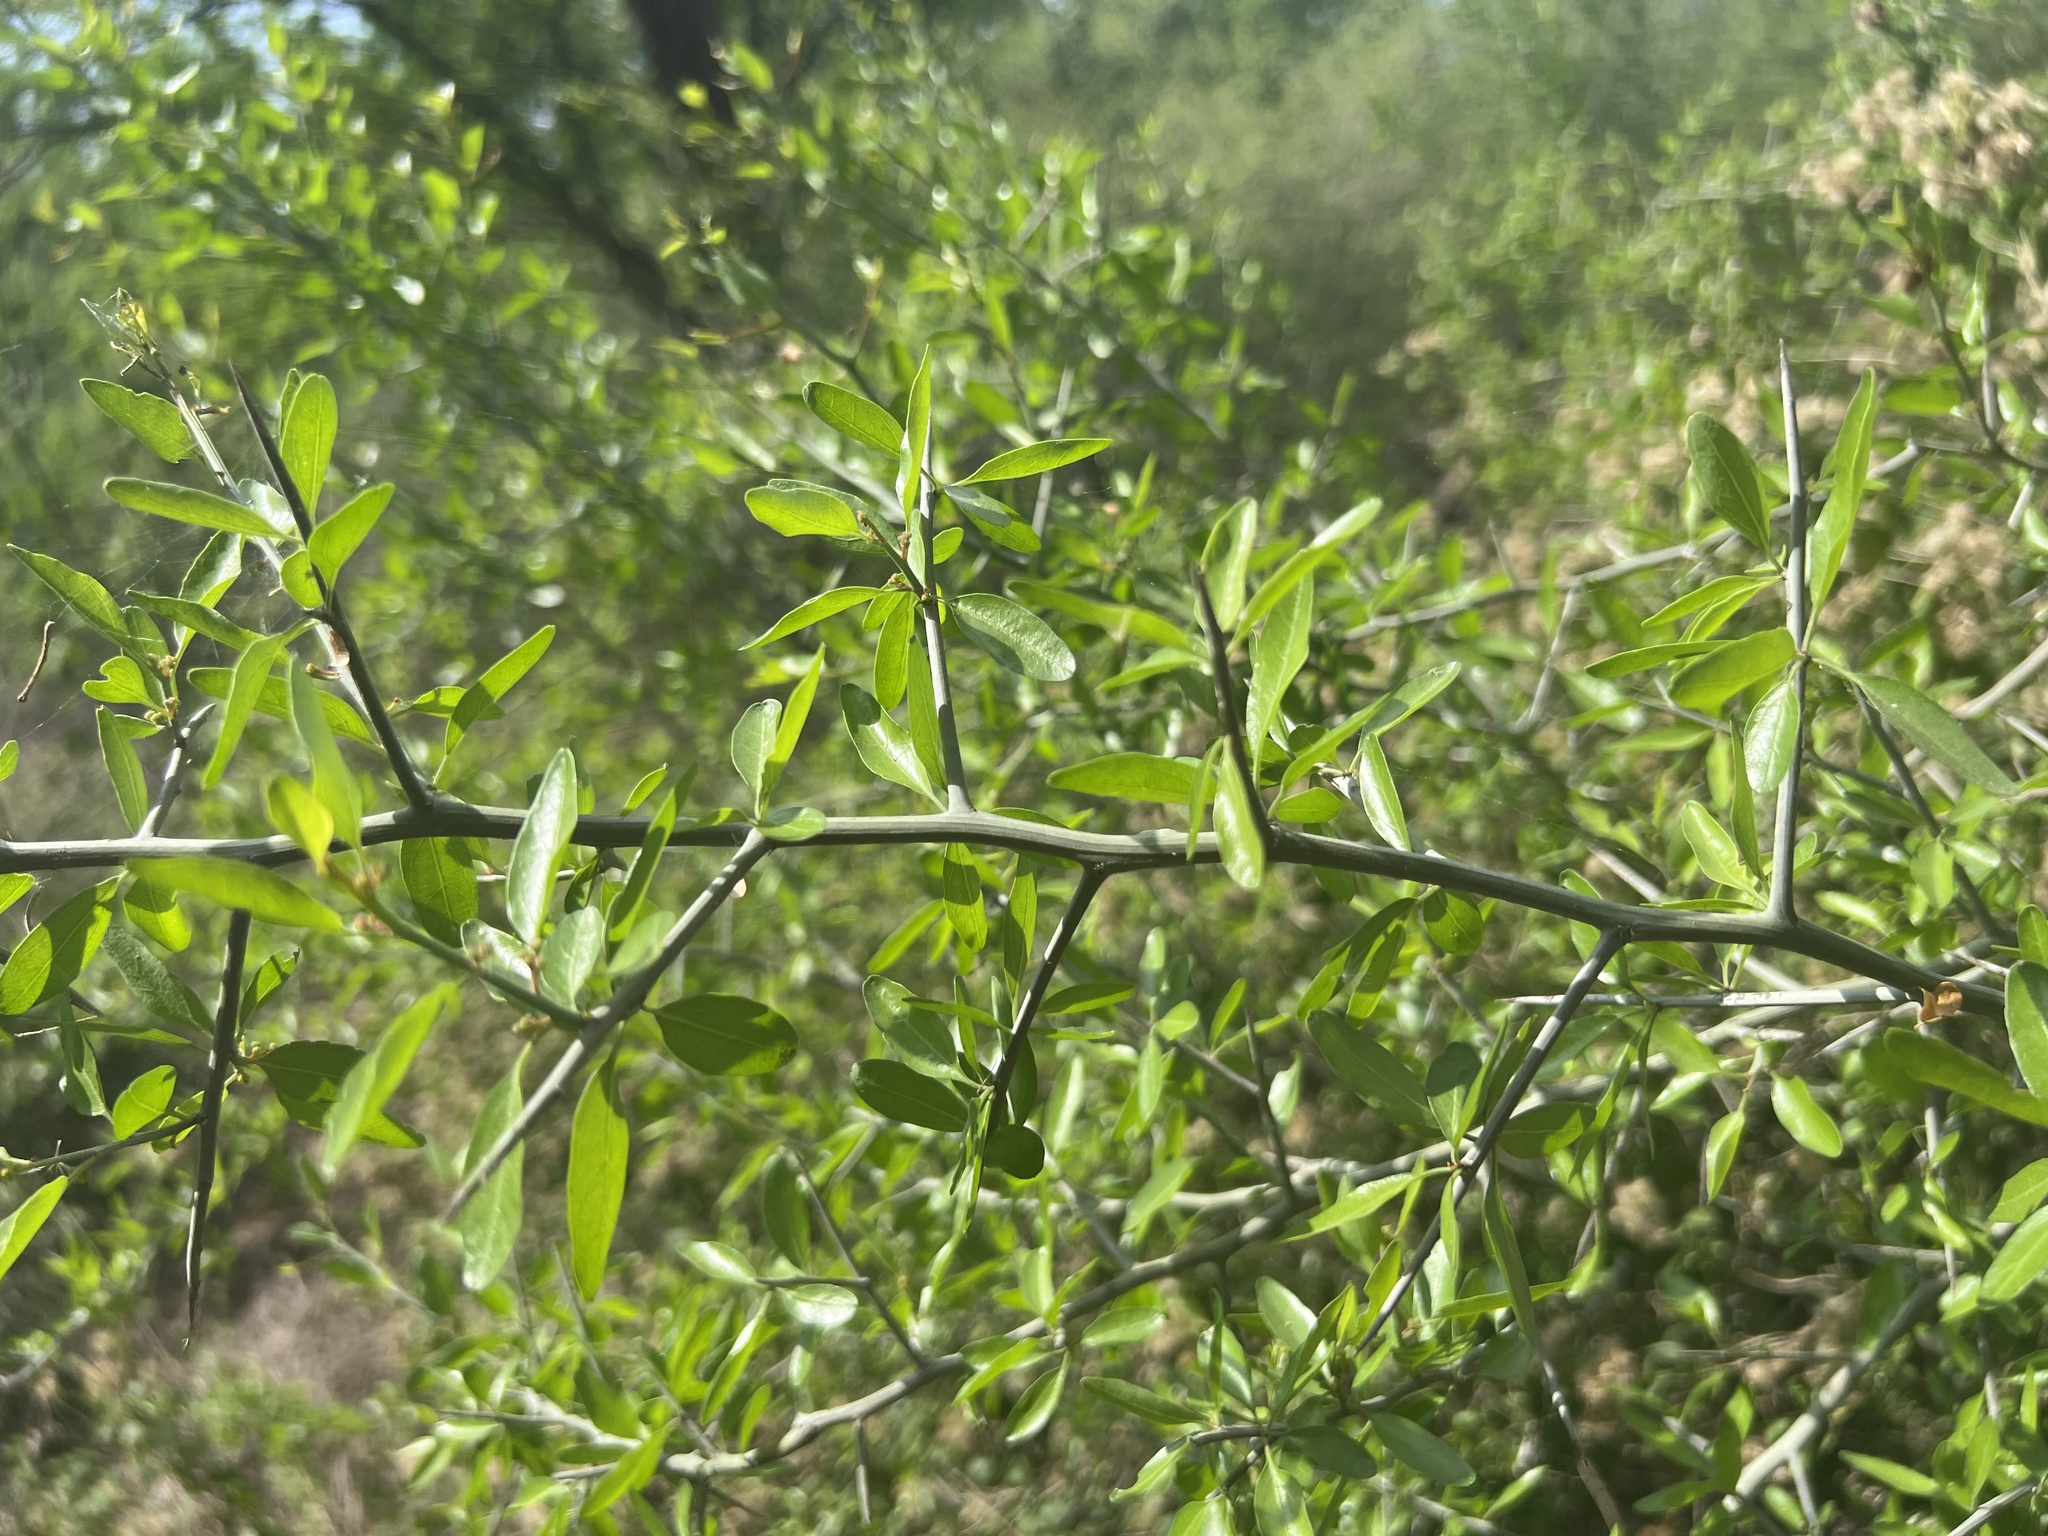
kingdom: Plantae
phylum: Tracheophyta
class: Magnoliopsida
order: Rosales
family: Rhamnaceae
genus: Sarcomphalus
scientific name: Sarcomphalus obtusifolius
